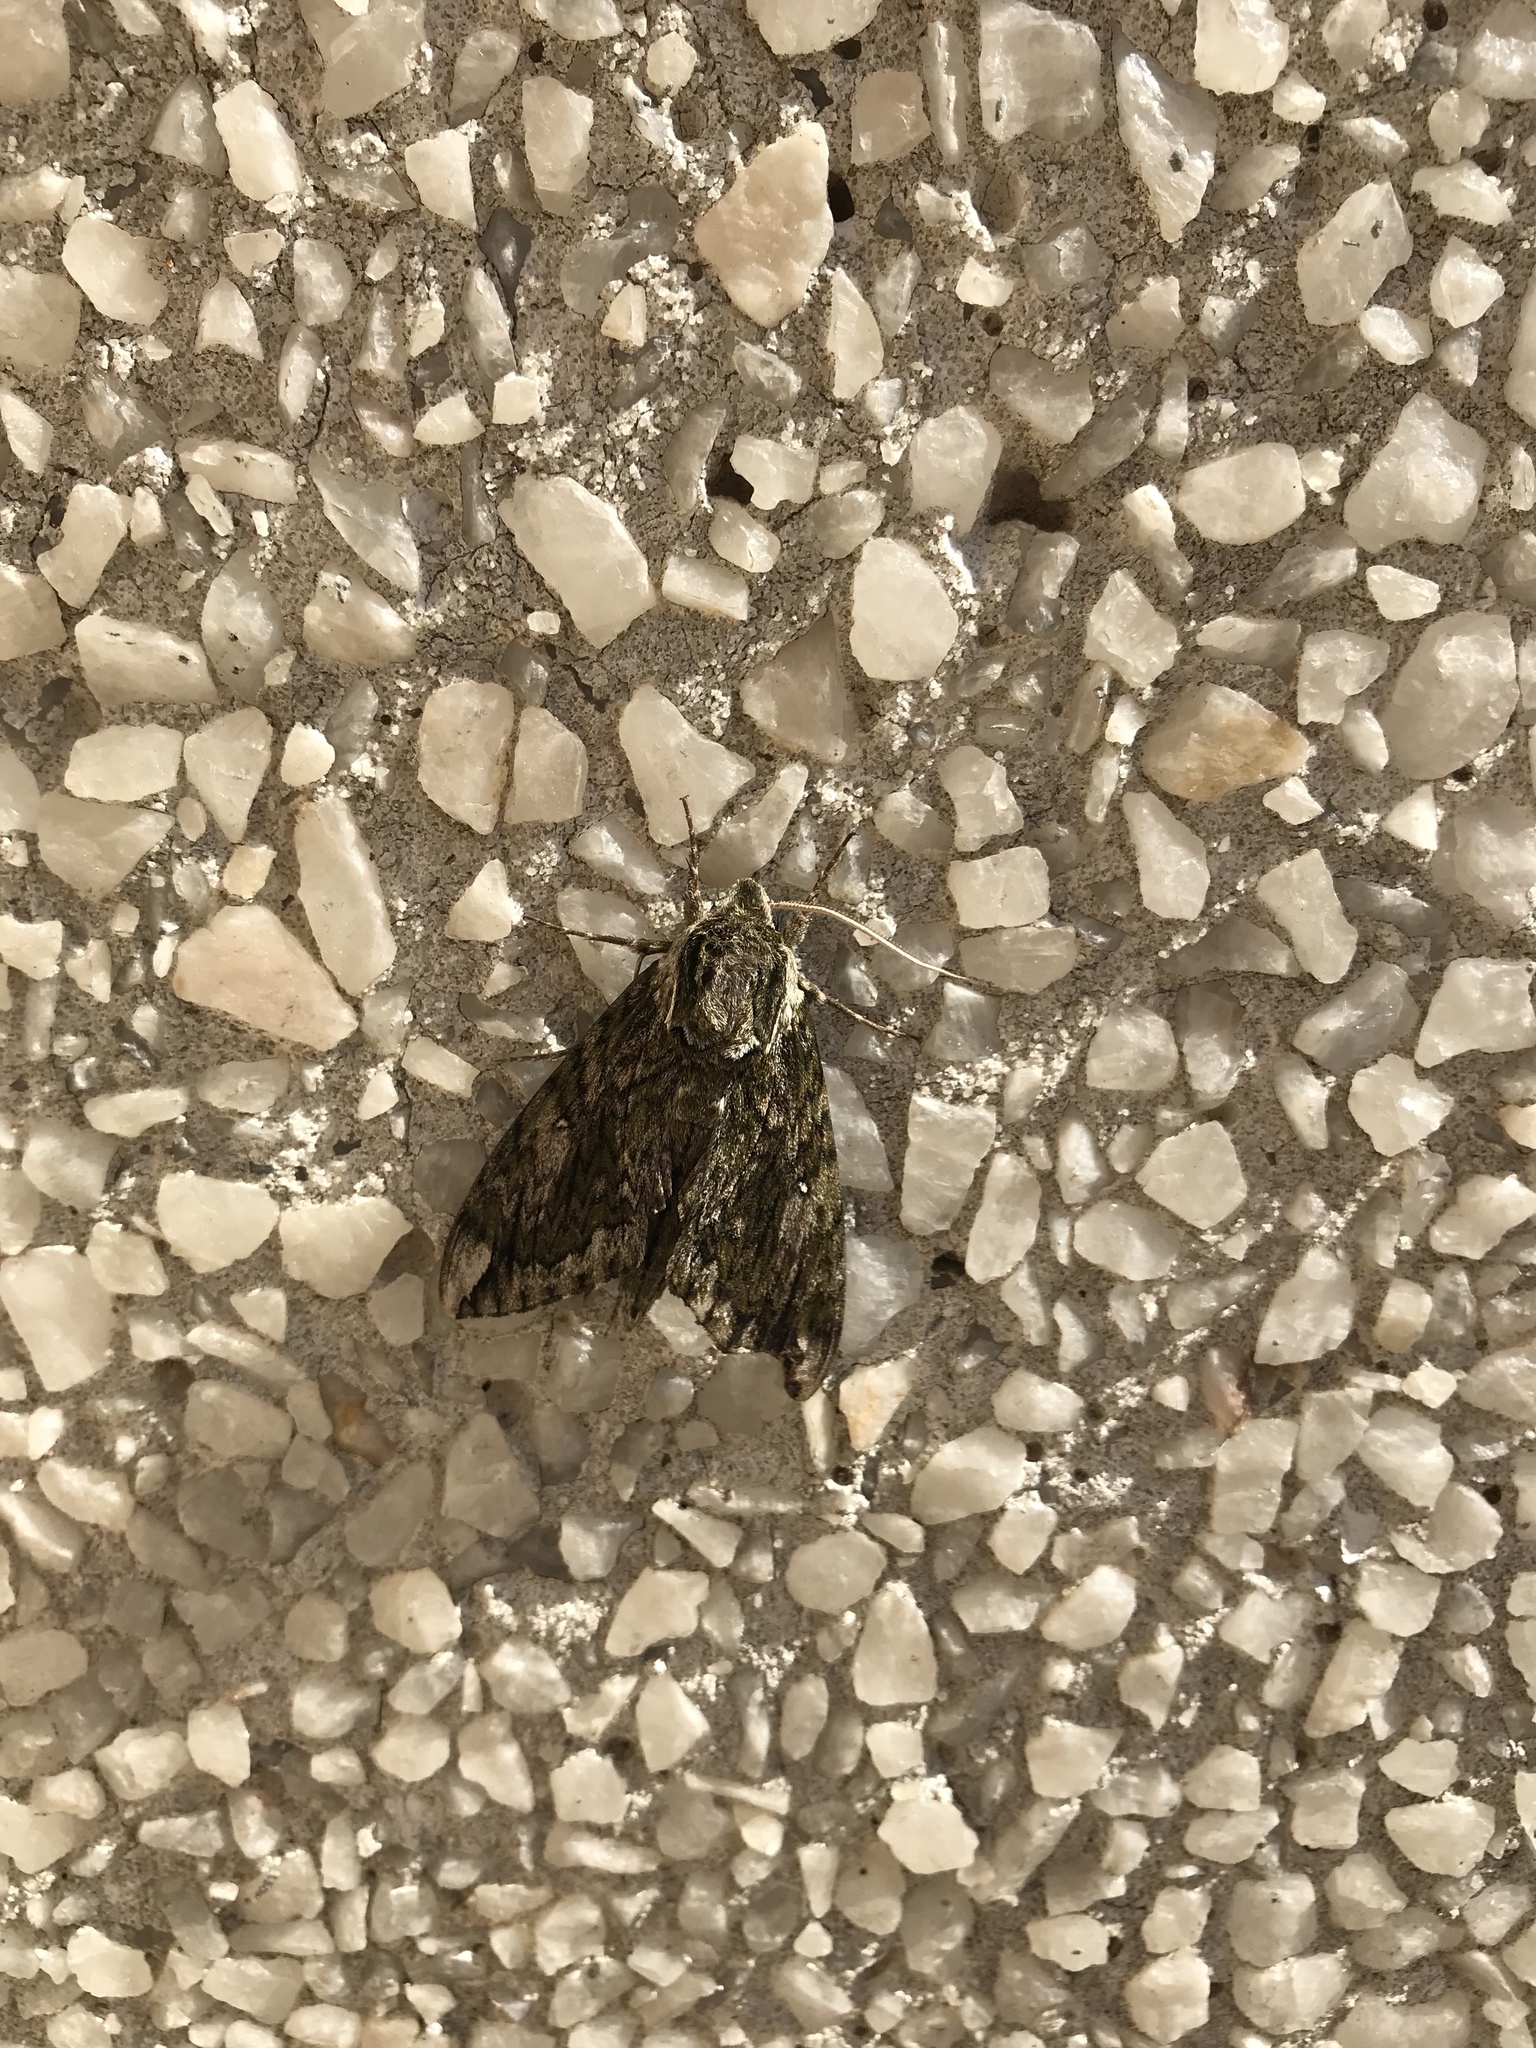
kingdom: Animalia
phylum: Arthropoda
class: Insecta
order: Lepidoptera
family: Sphingidae
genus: Ceratomia
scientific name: Ceratomia hageni
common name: Hagen's sphinx
